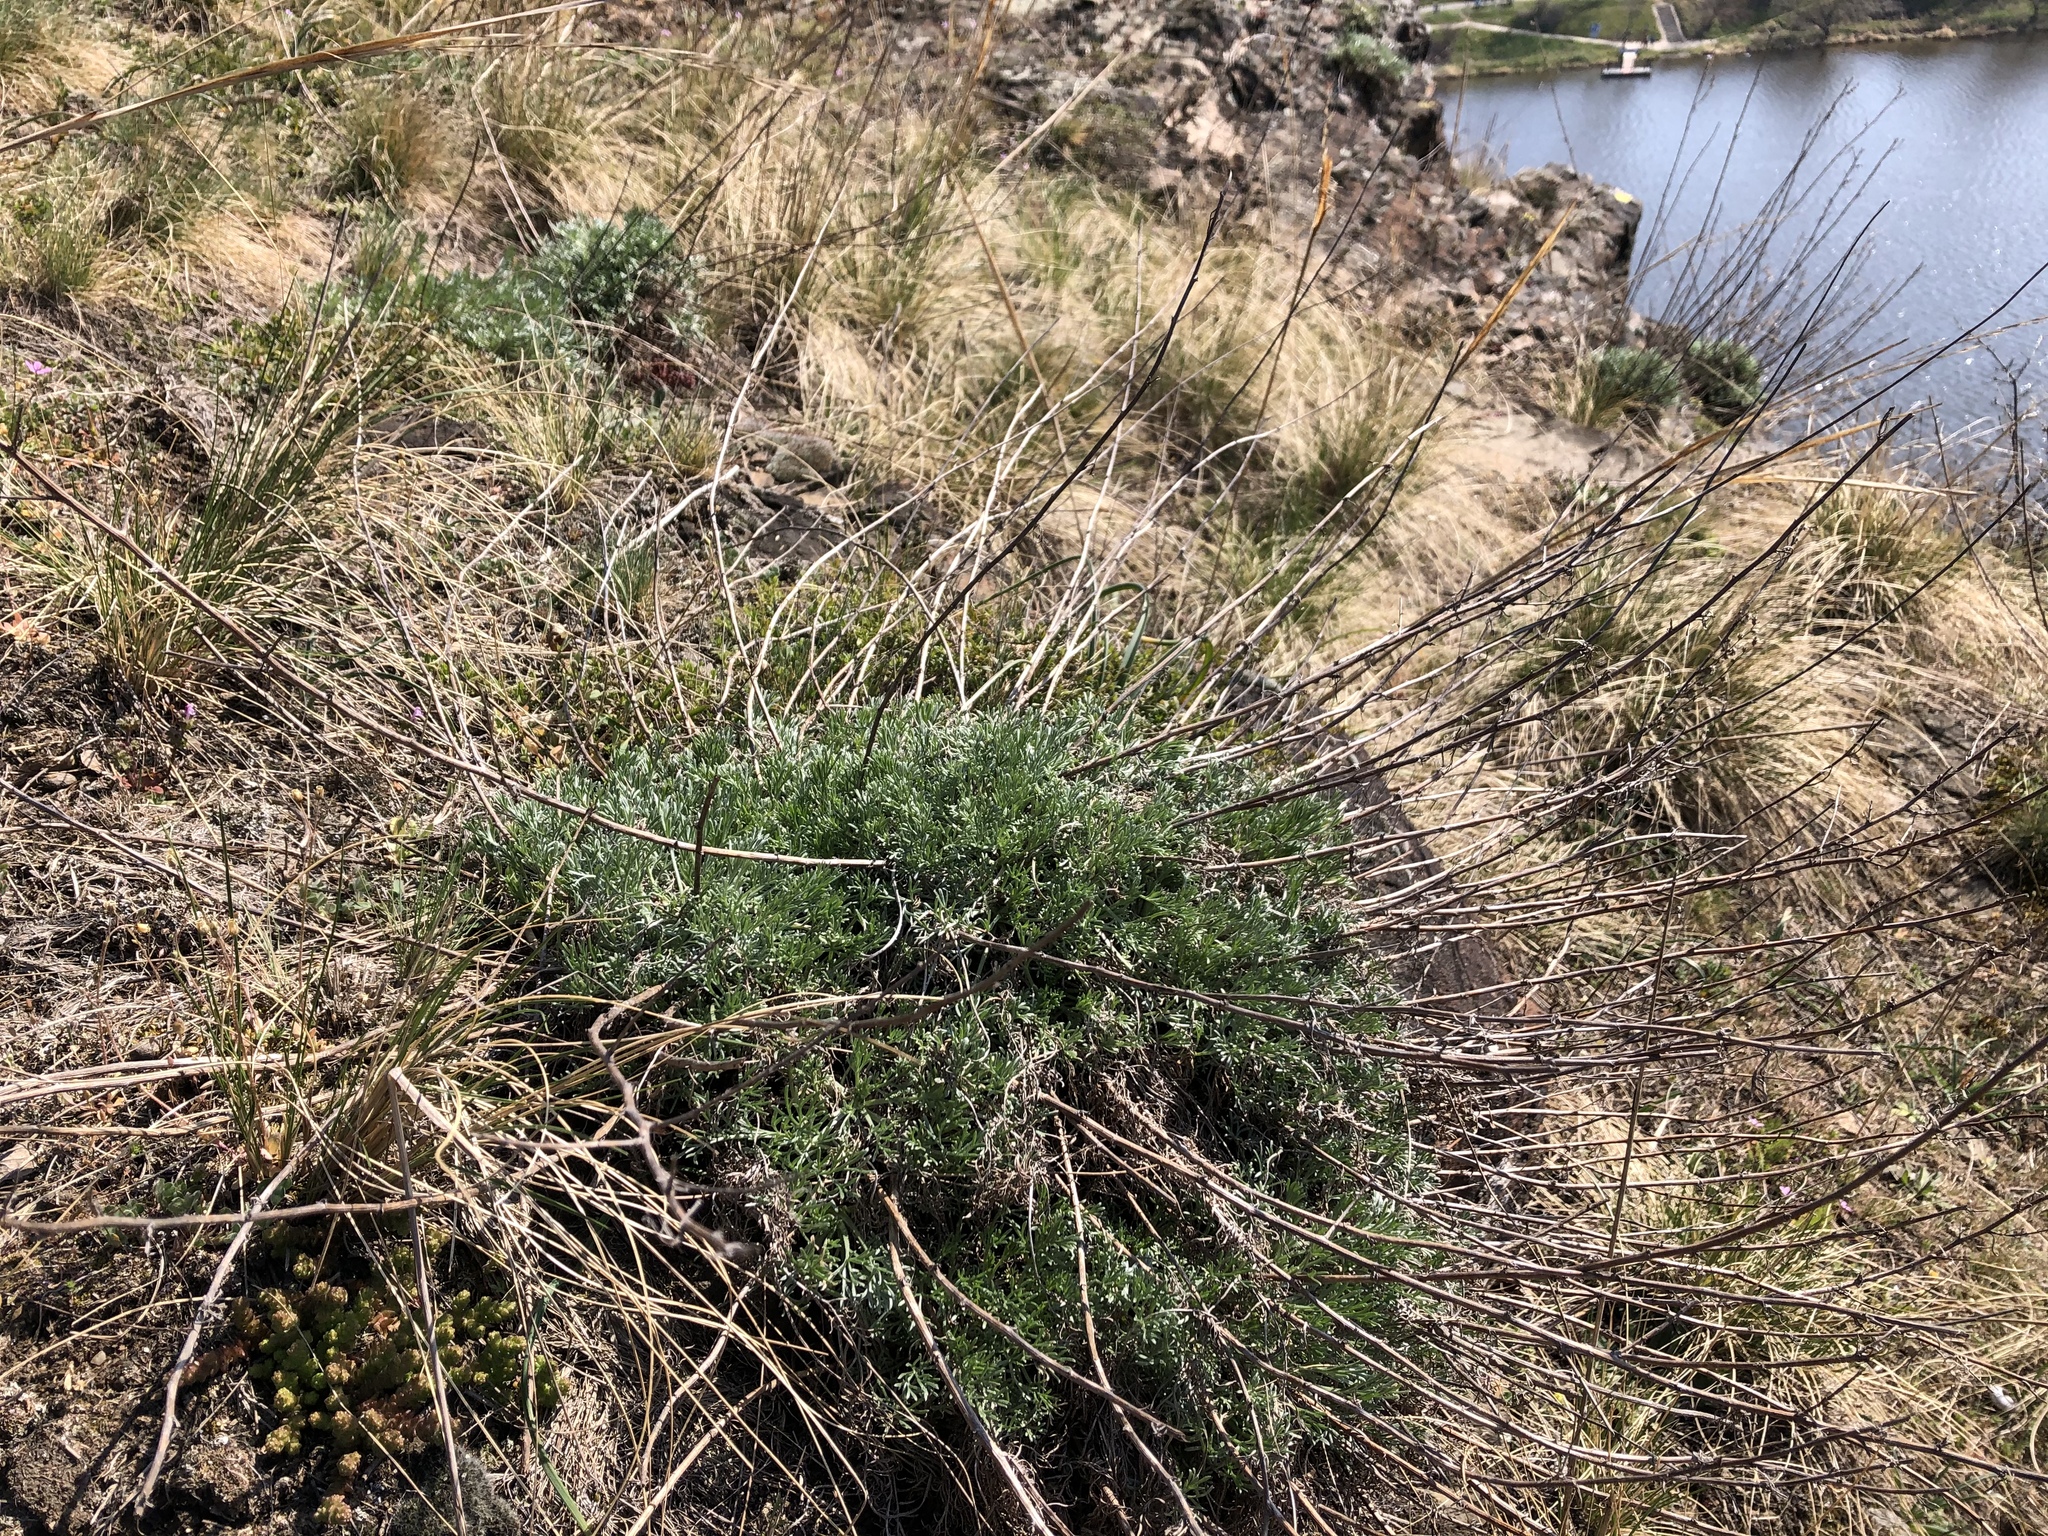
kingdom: Plantae
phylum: Tracheophyta
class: Magnoliopsida
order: Asterales
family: Asteraceae
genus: Artemisia
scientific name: Artemisia campestris
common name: Field wormwood
